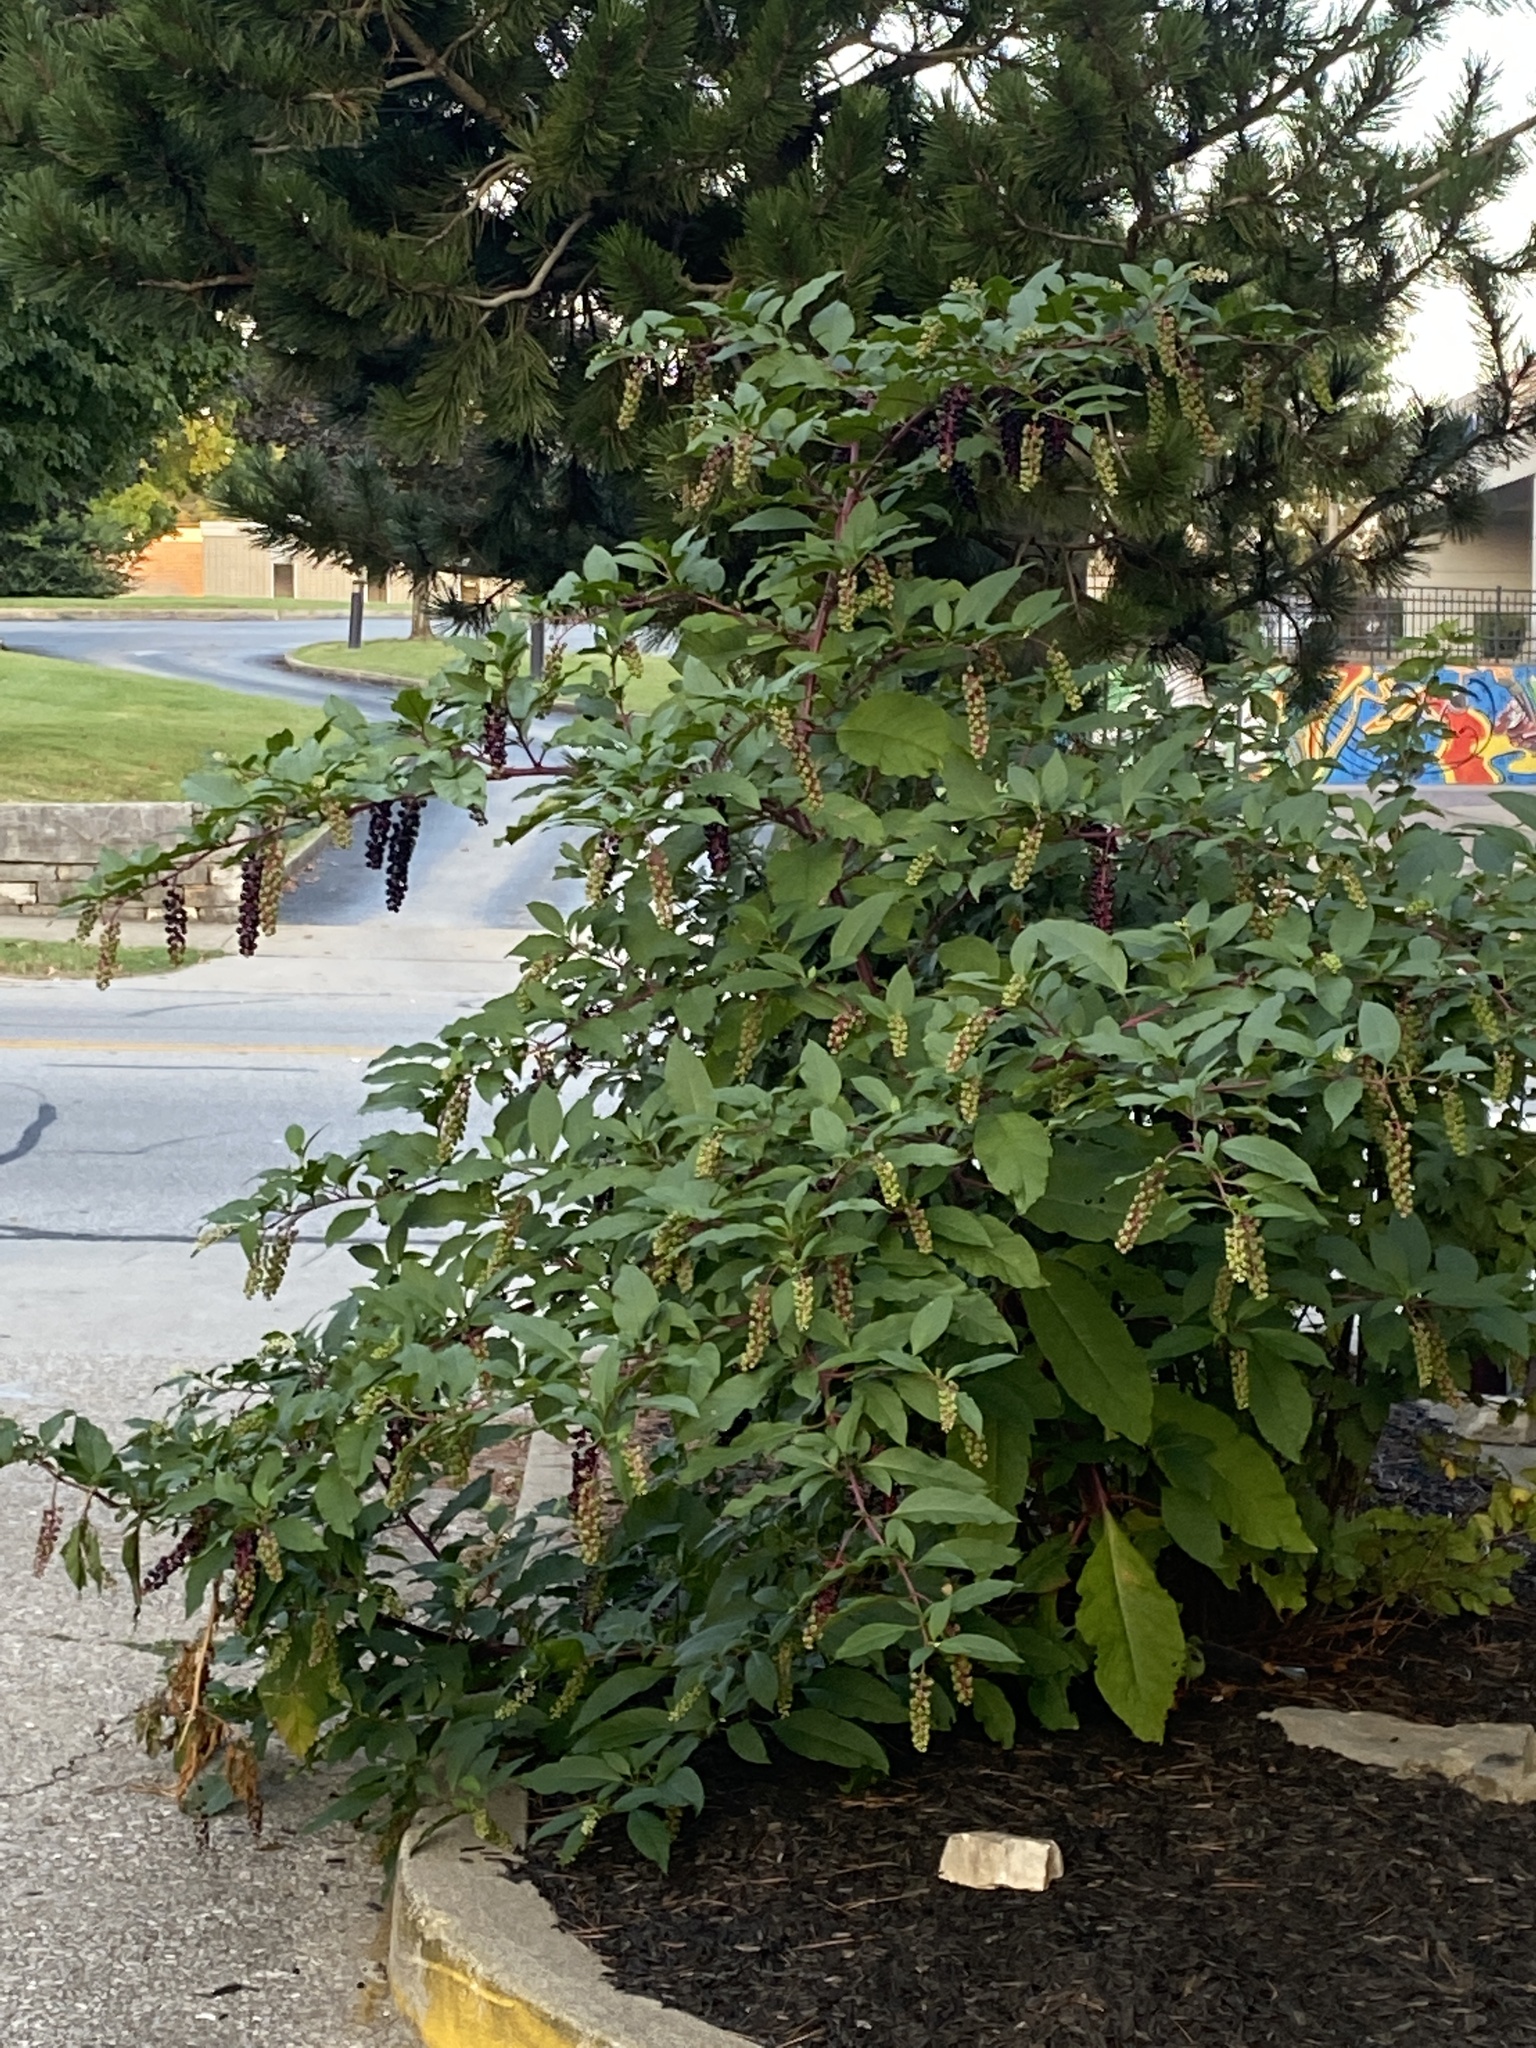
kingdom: Plantae
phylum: Tracheophyta
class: Magnoliopsida
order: Caryophyllales
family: Phytolaccaceae
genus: Phytolacca
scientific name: Phytolacca americana
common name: American pokeweed
